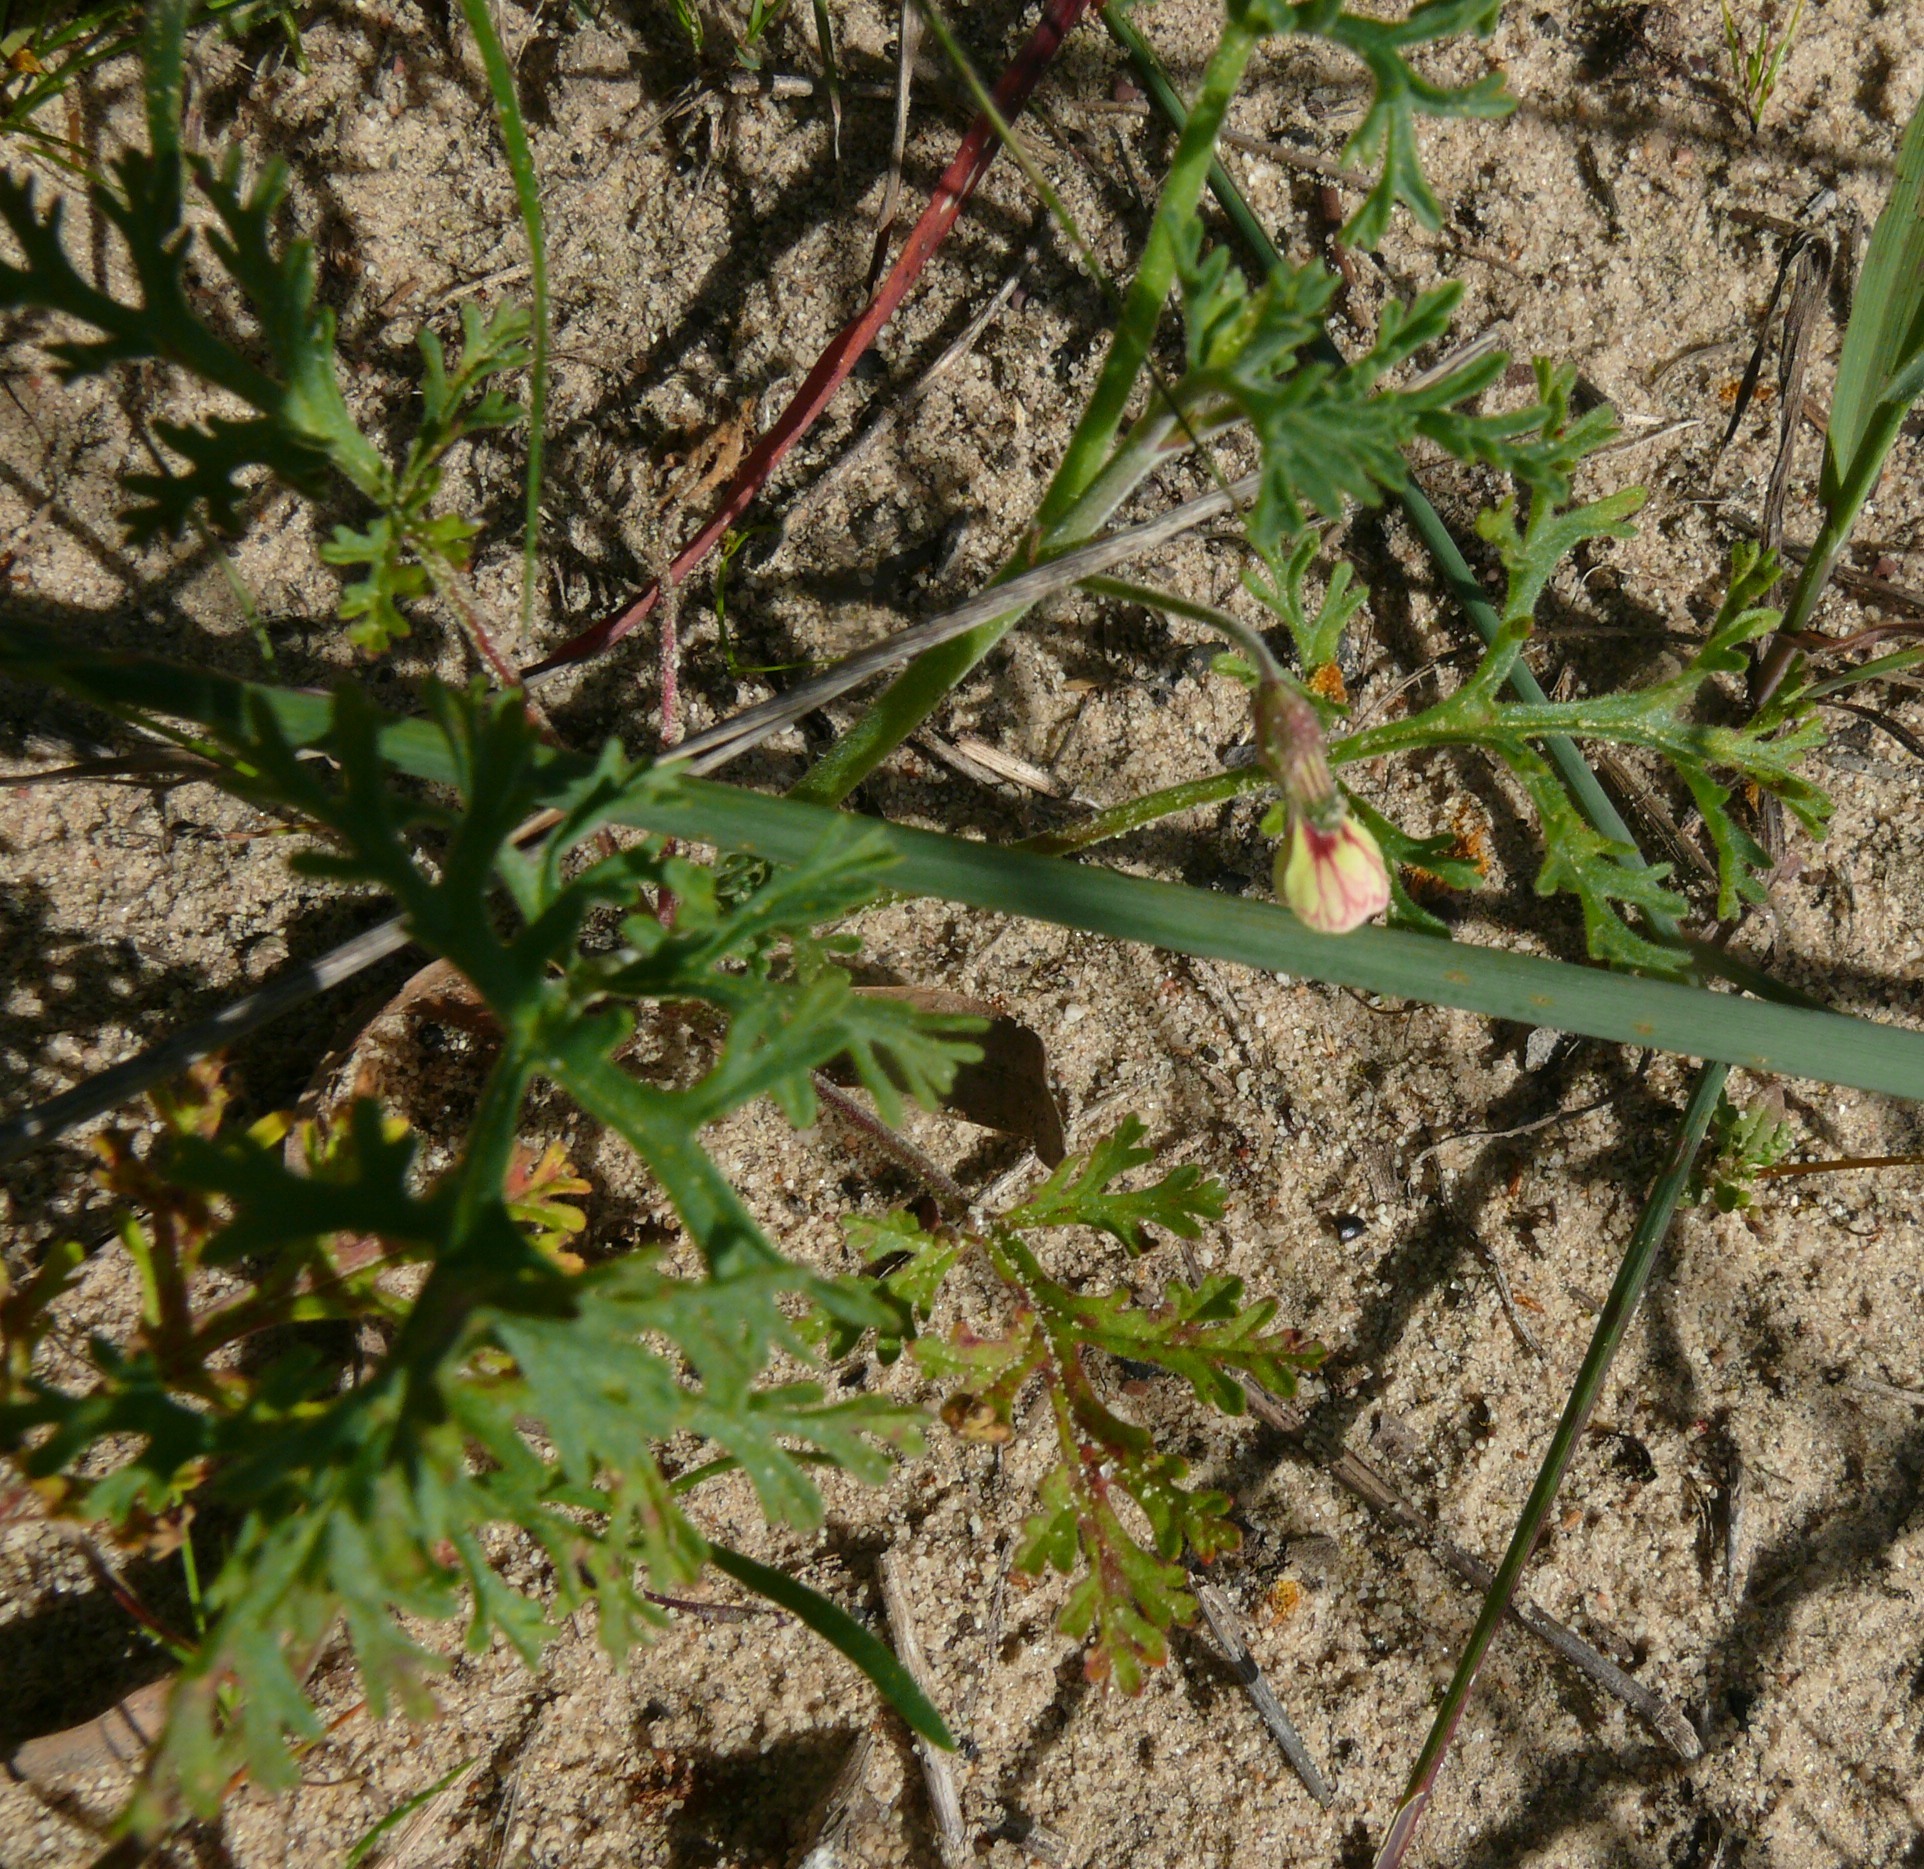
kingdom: Plantae
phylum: Tracheophyta
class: Magnoliopsida
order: Geraniales
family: Geraniaceae
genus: Pelargonium
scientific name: Pelargonium myrrhifolium
